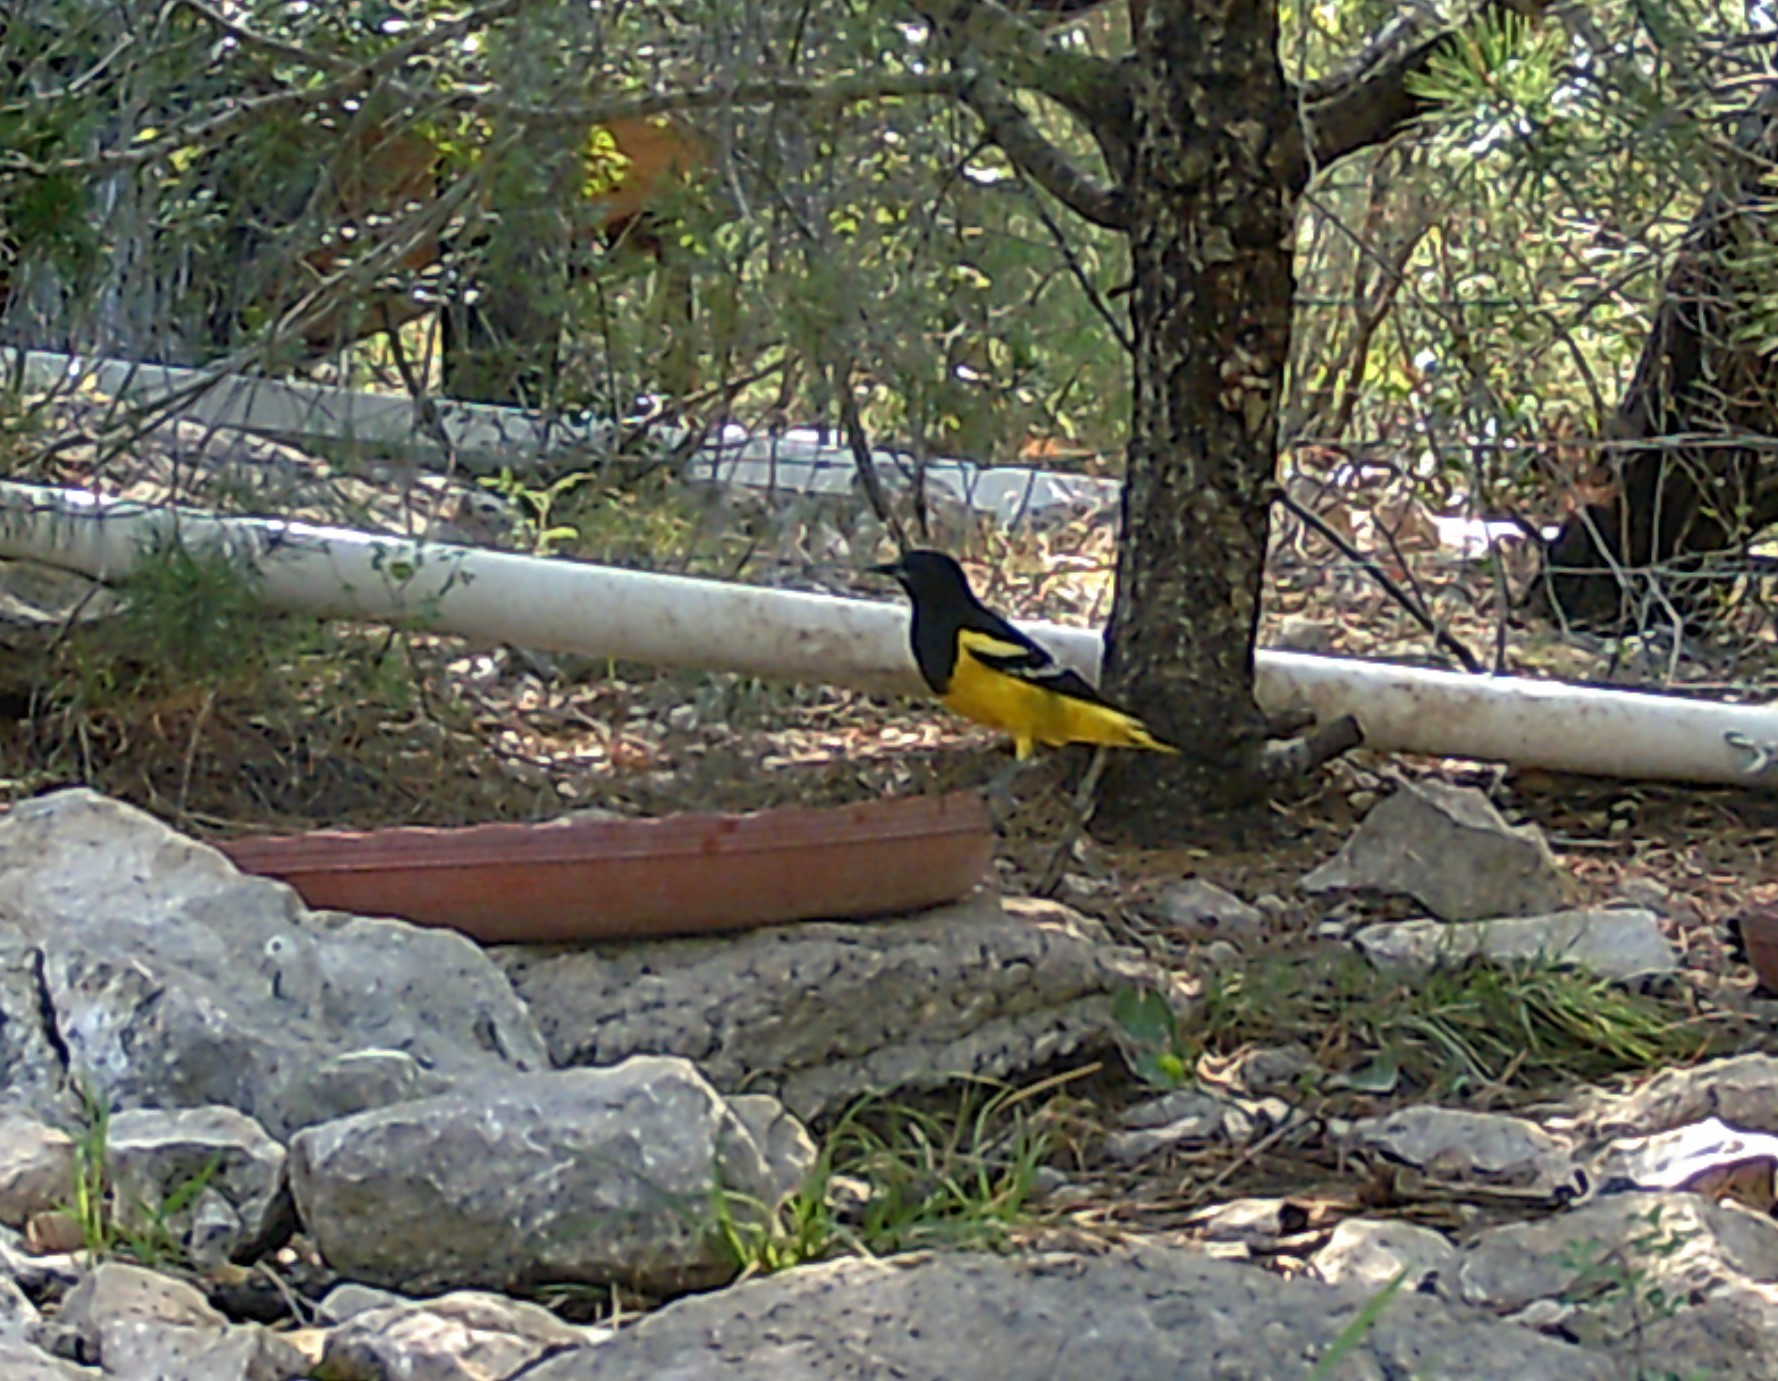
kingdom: Animalia
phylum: Chordata
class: Aves
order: Passeriformes
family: Icteridae
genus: Icterus
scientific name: Icterus parisorum
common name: Scott's oriole
